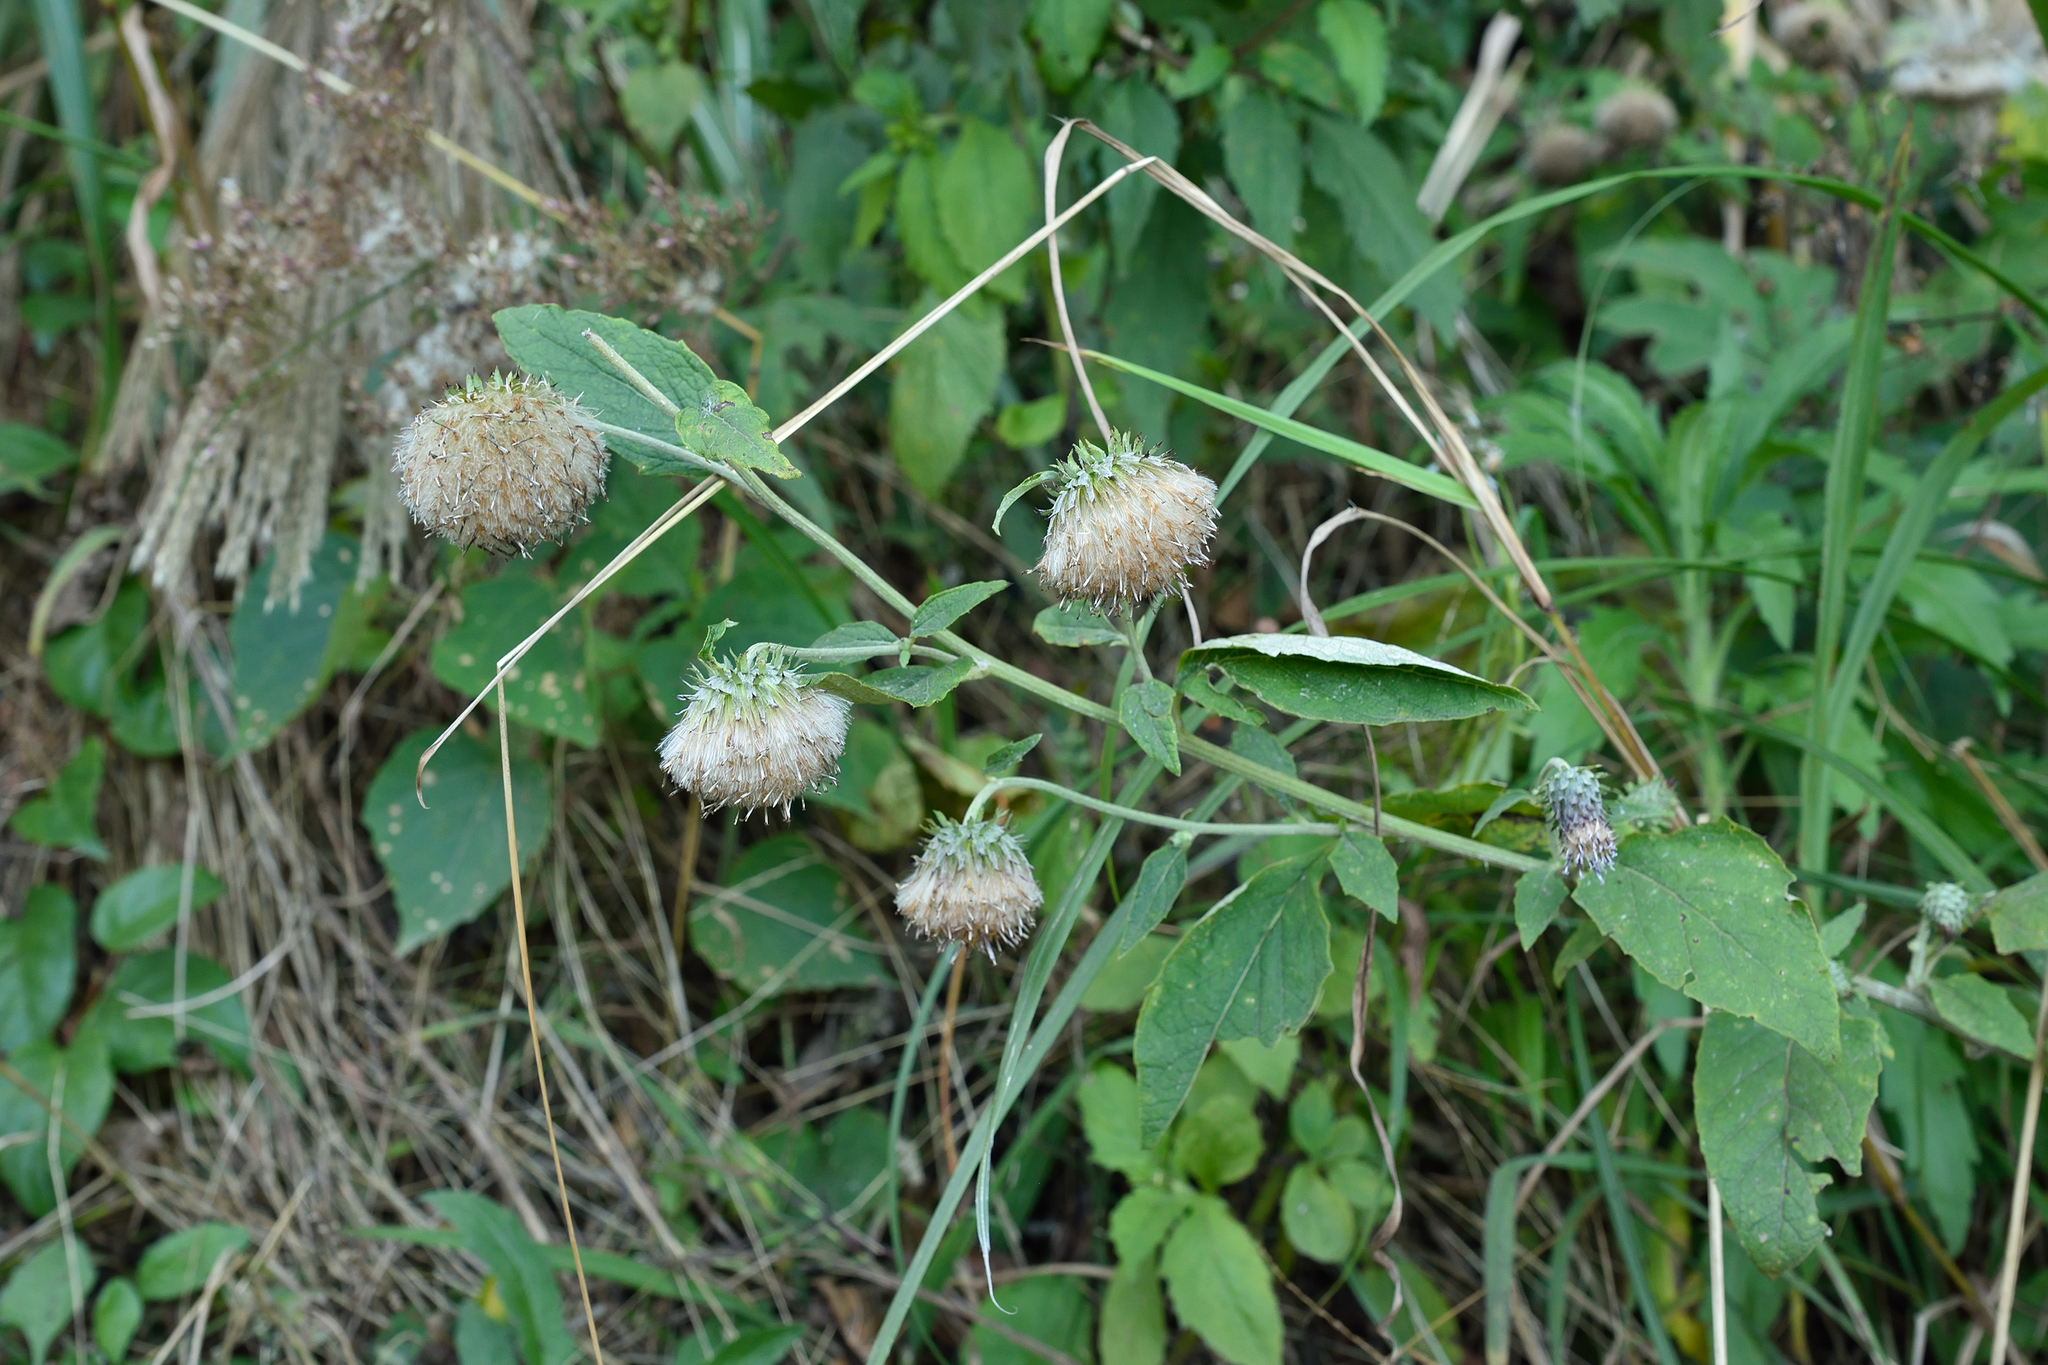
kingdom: Plantae
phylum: Tracheophyta
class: Magnoliopsida
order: Asterales
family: Asteraceae
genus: Jurinea
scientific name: Jurinea deltoidea
